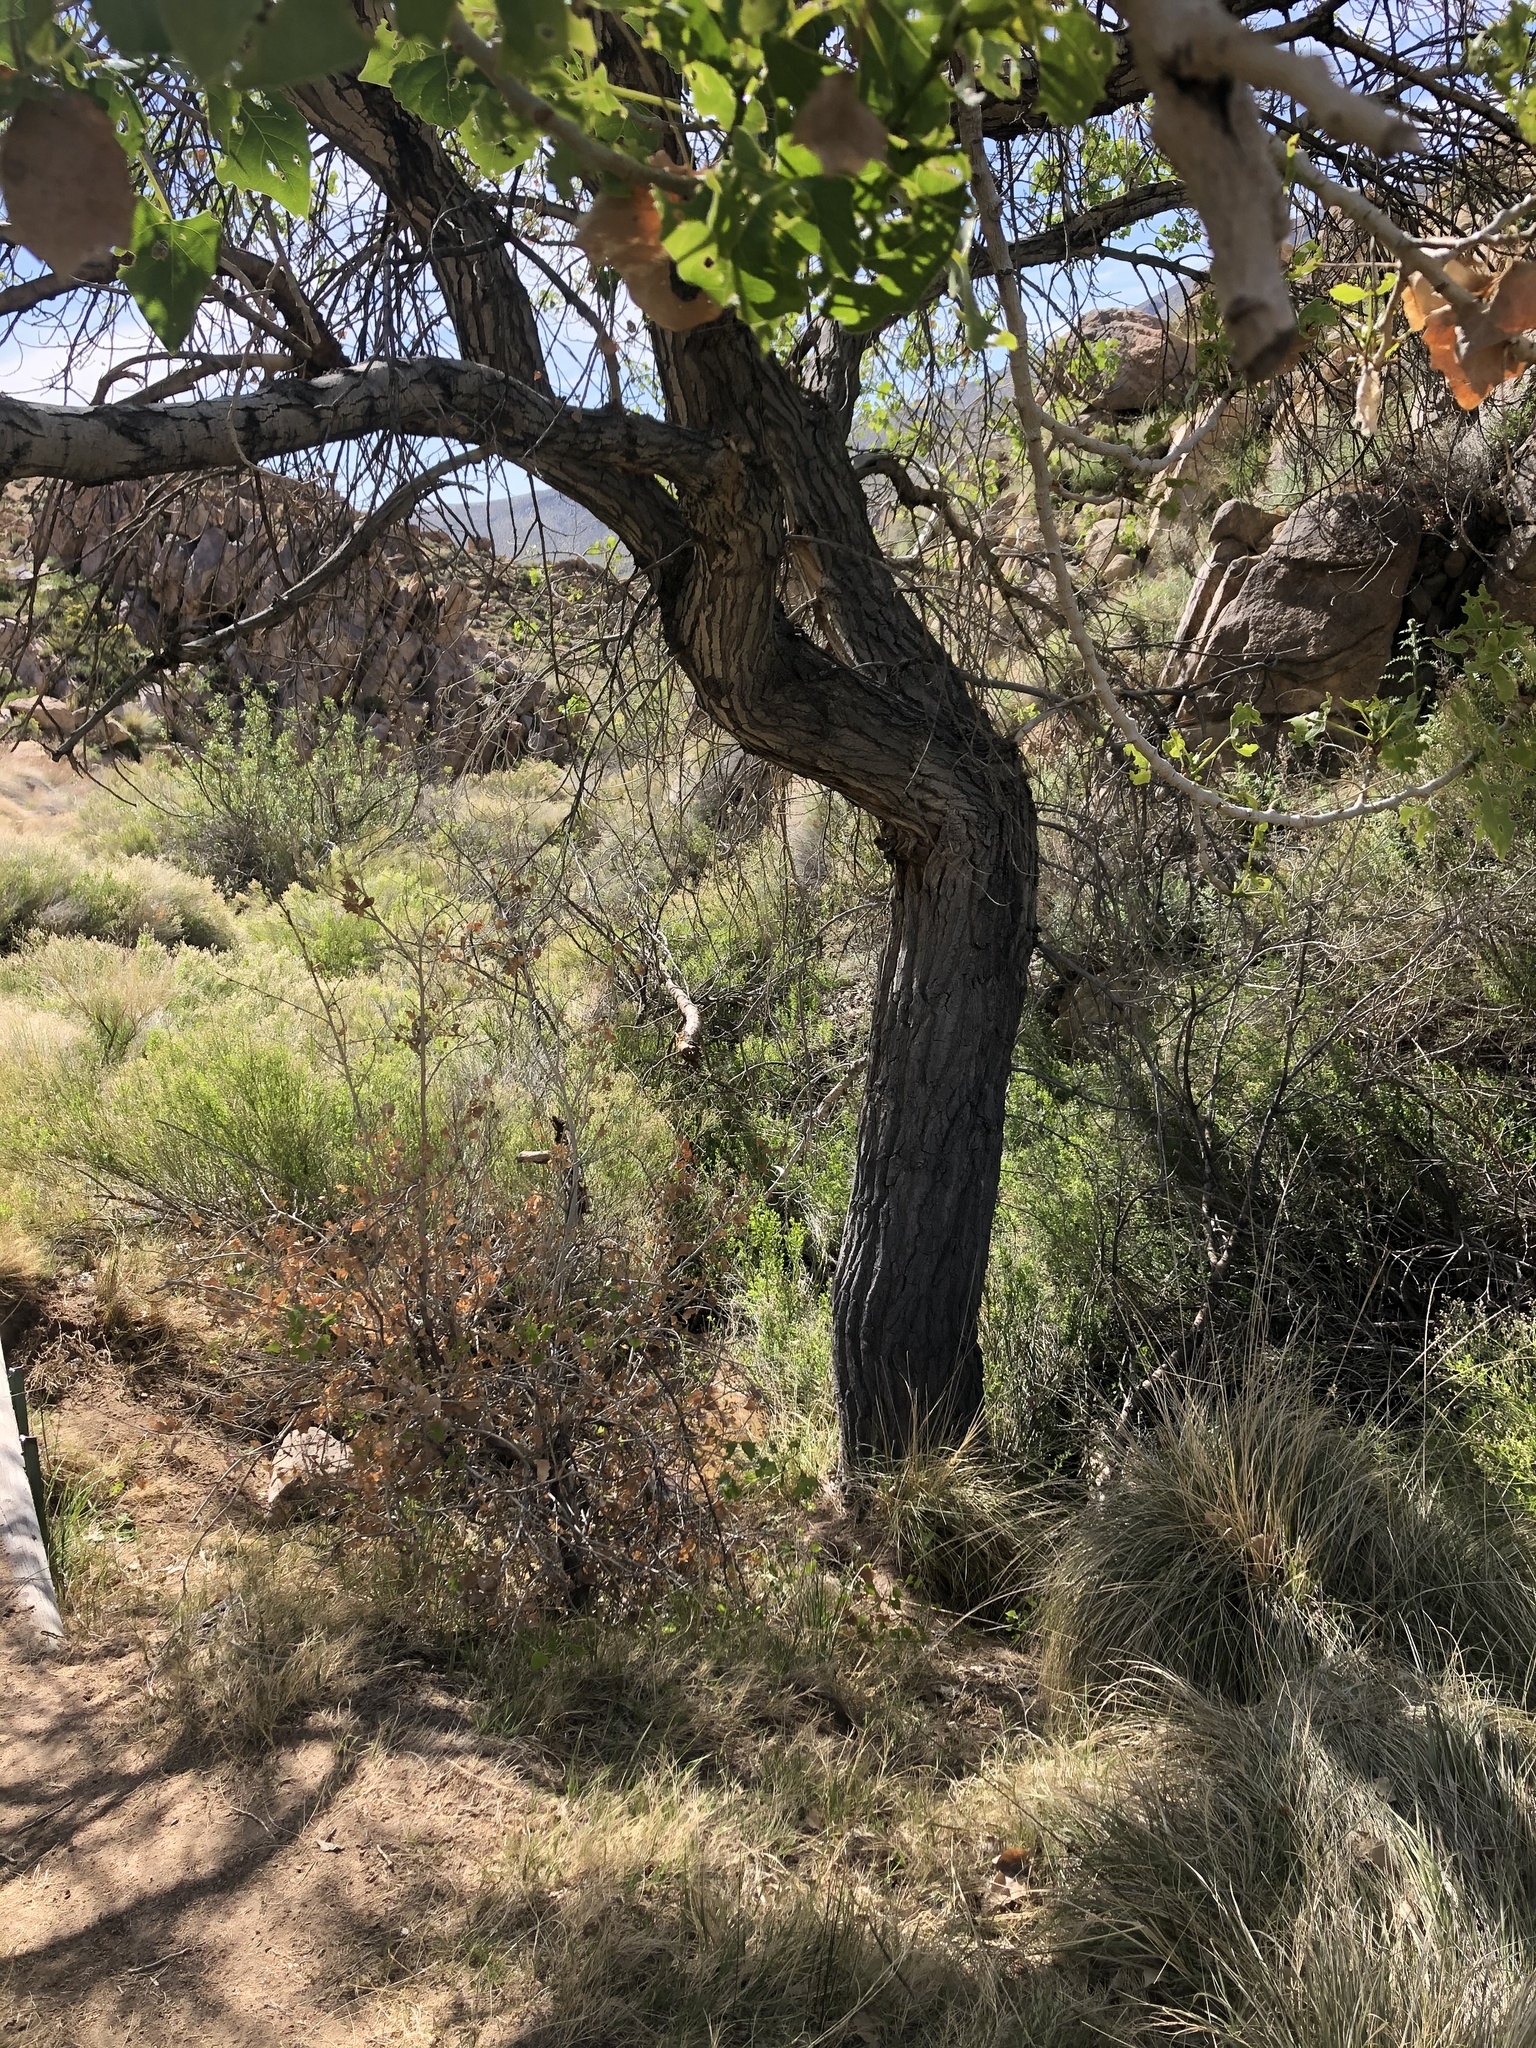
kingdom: Plantae
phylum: Tracheophyta
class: Magnoliopsida
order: Malpighiales
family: Salicaceae
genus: Populus
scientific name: Populus fremontii
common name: Fremont's cottonwood
